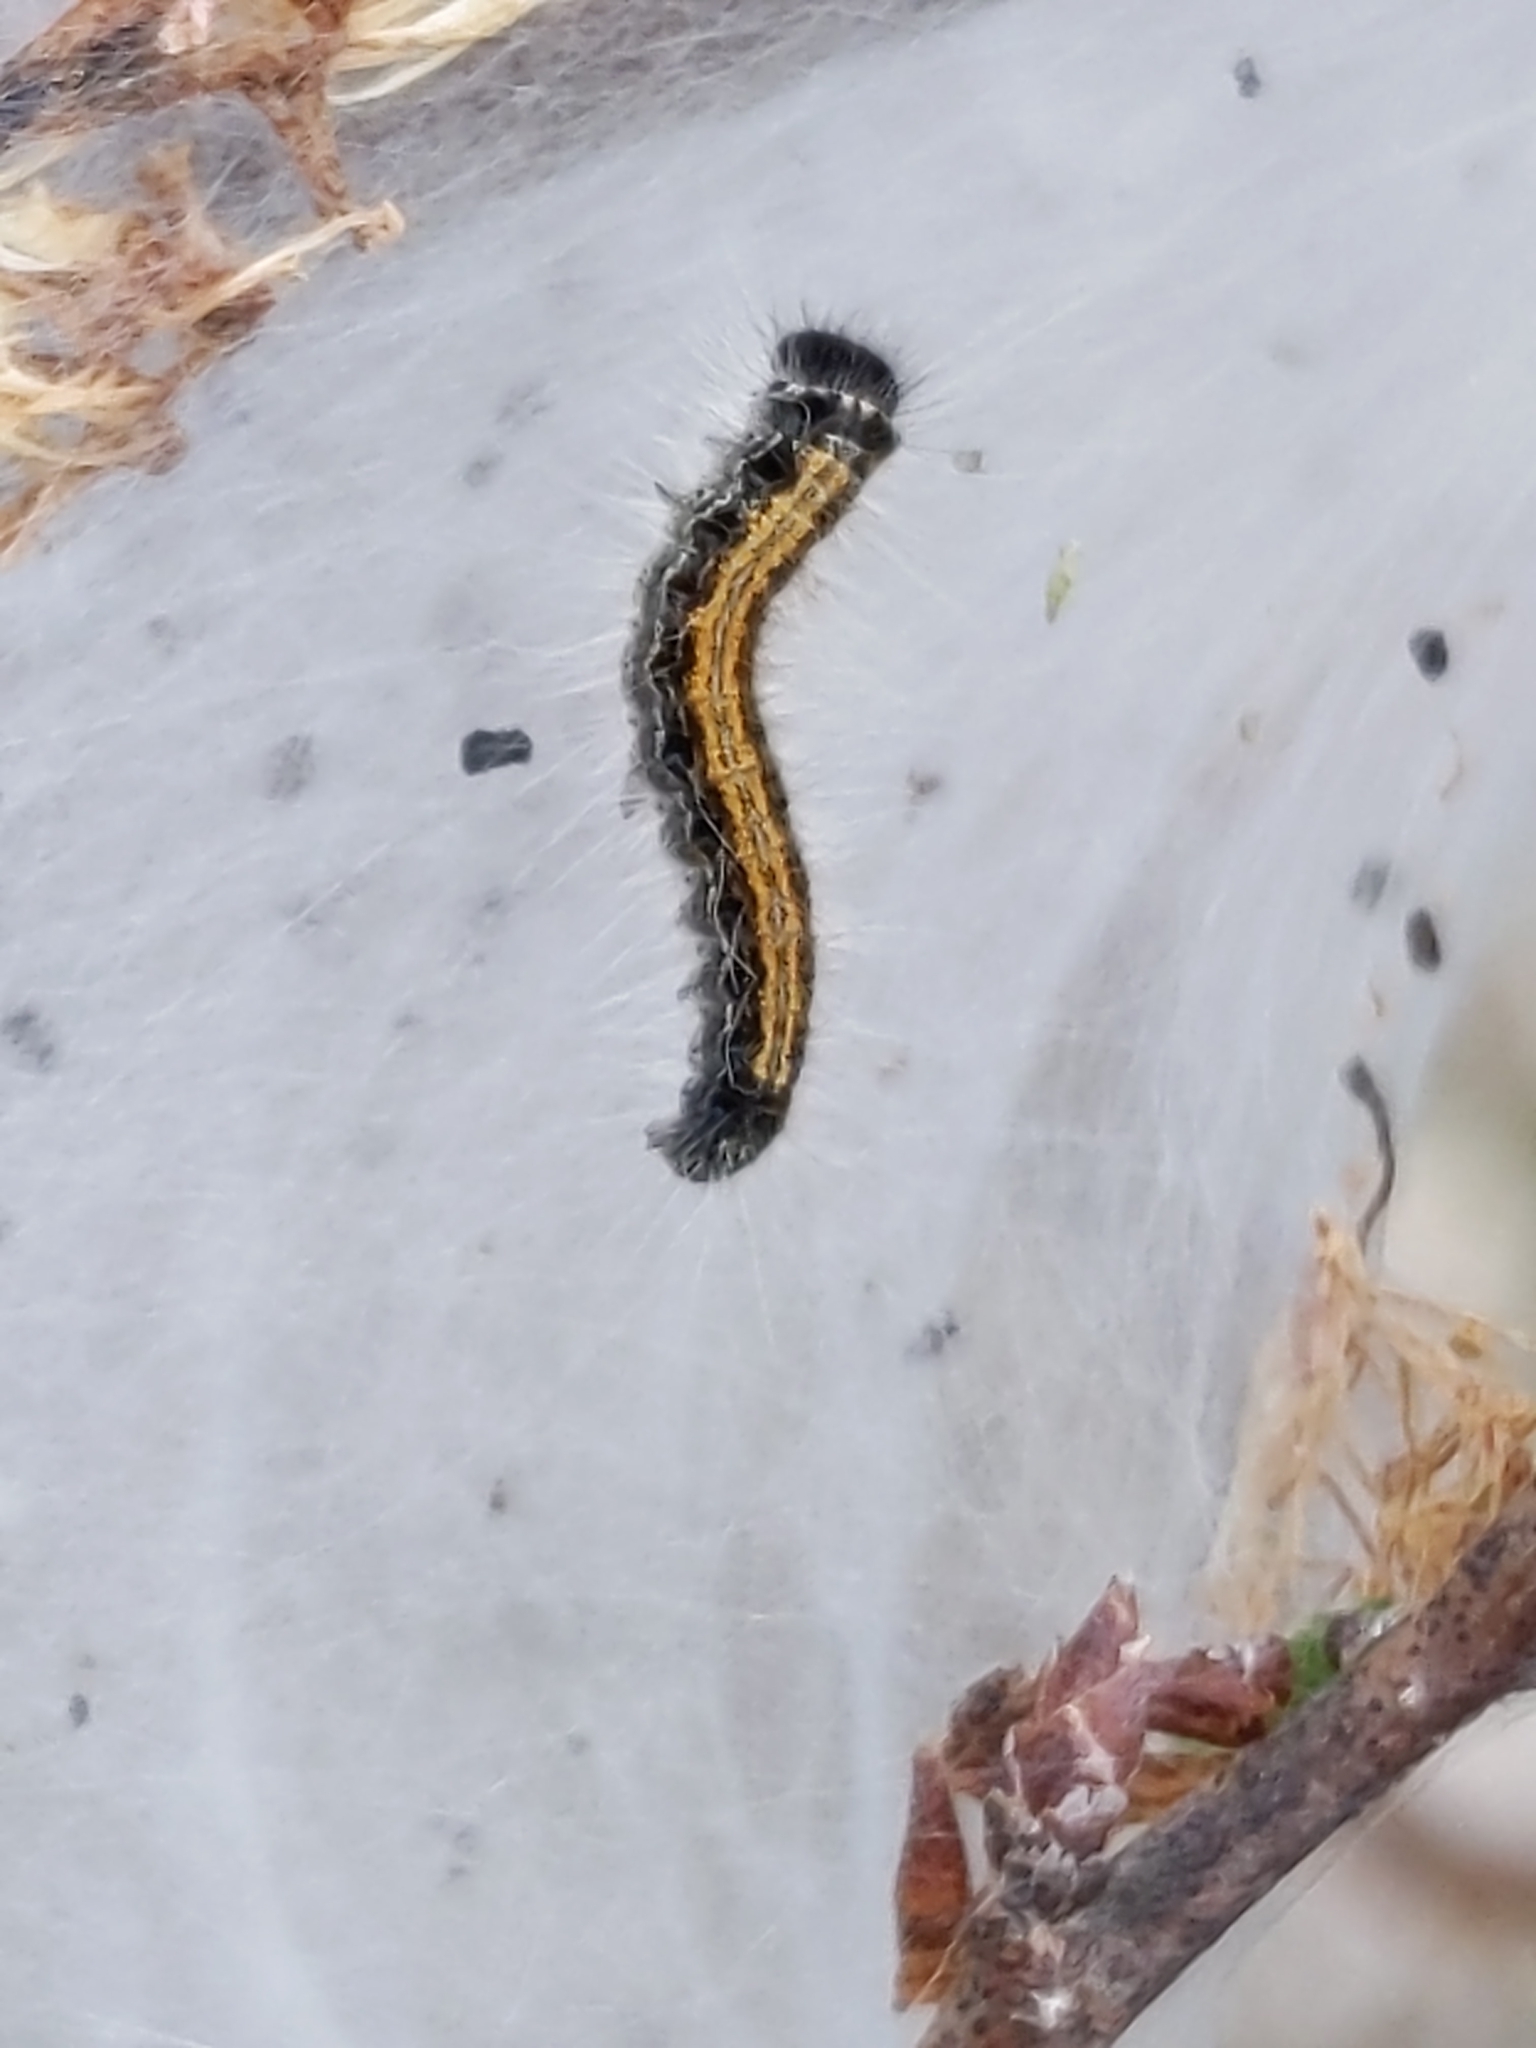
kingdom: Animalia
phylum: Arthropoda
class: Insecta
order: Lepidoptera
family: Lasiocampidae
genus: Malacosoma
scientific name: Malacosoma americana
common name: Eastern tent caterpillar moth
